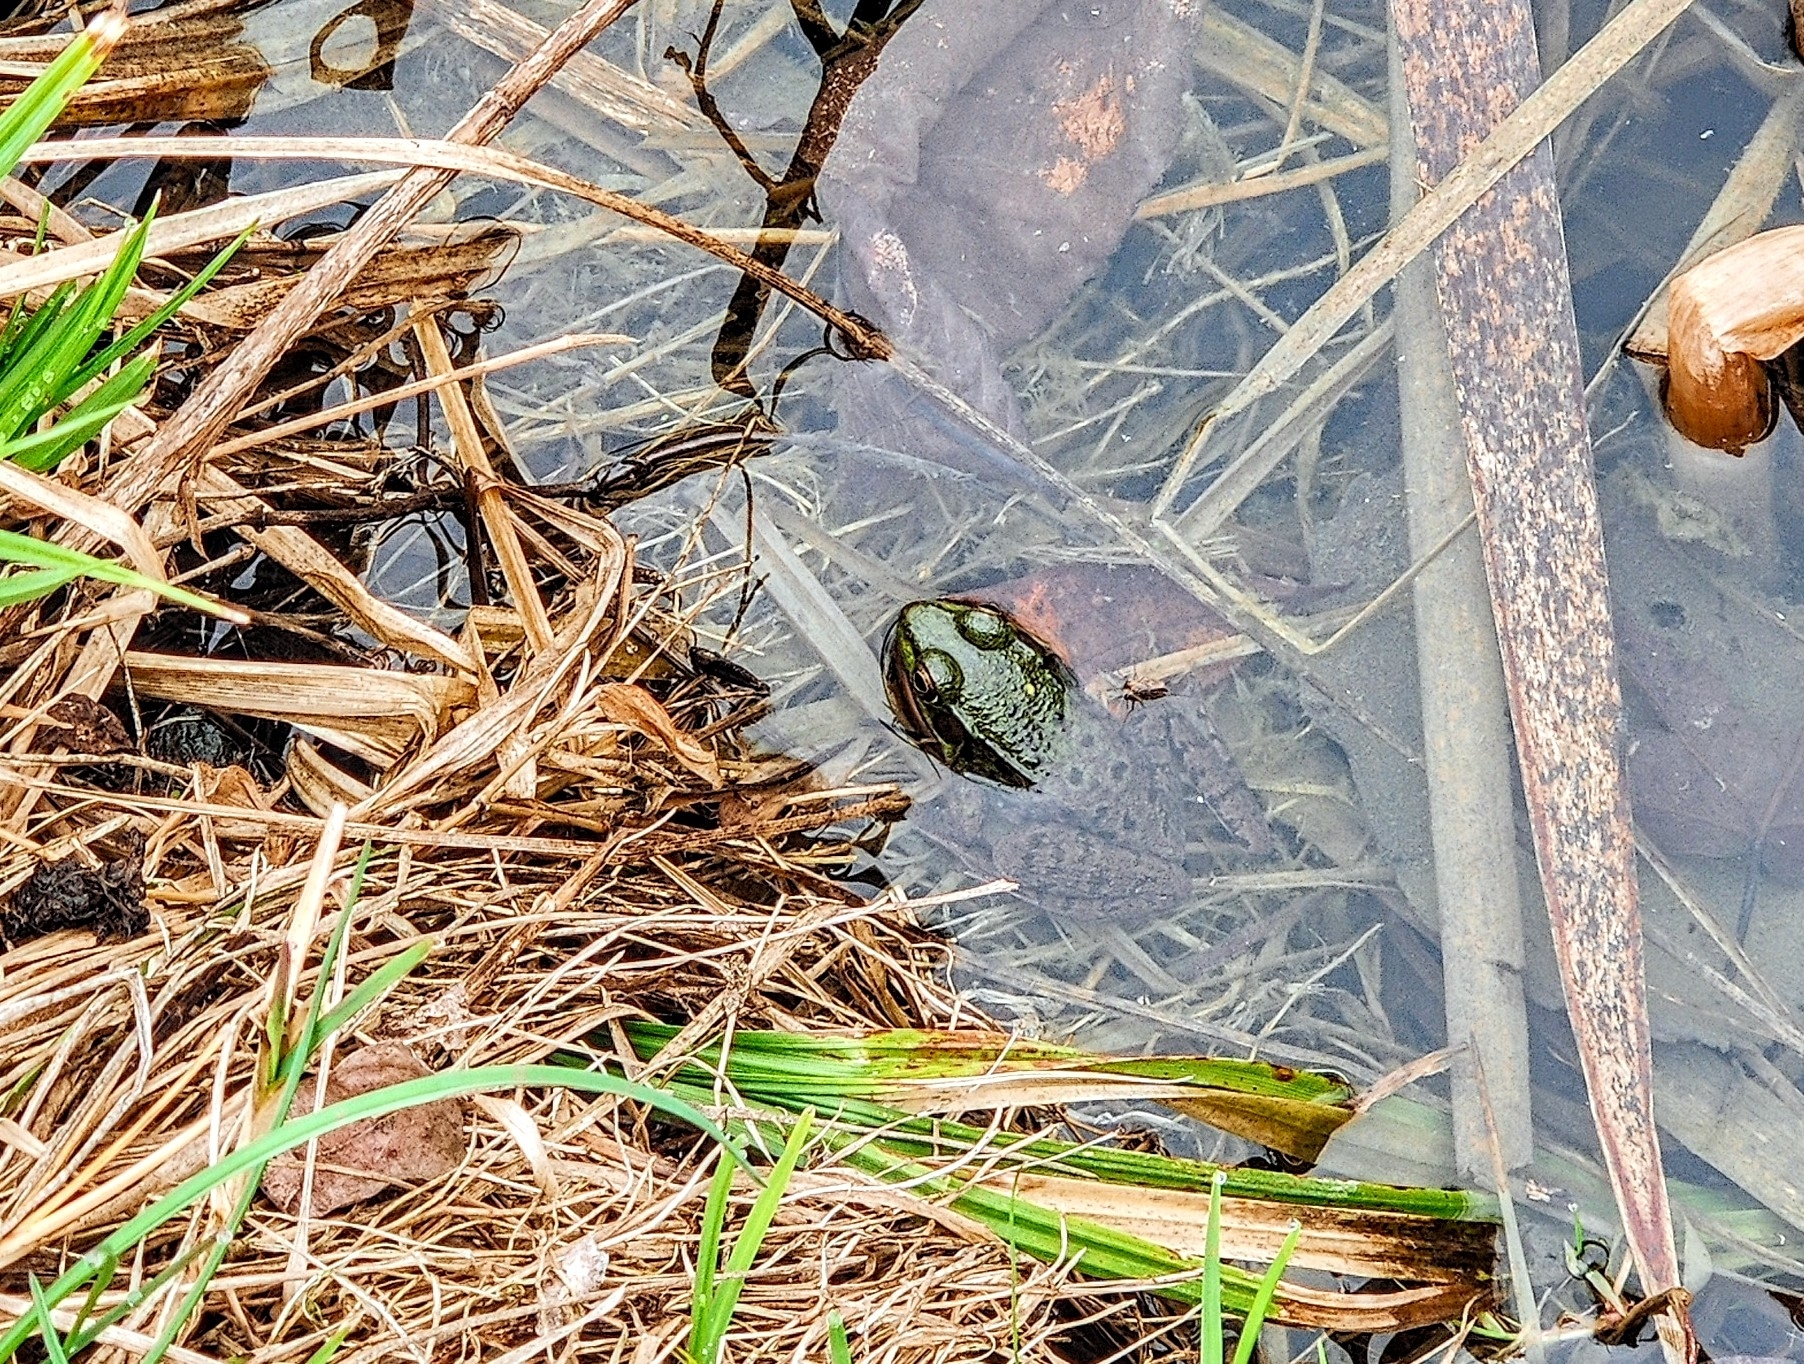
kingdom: Animalia
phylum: Chordata
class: Amphibia
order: Anura
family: Ranidae
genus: Lithobates
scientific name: Lithobates clamitans
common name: Green frog
